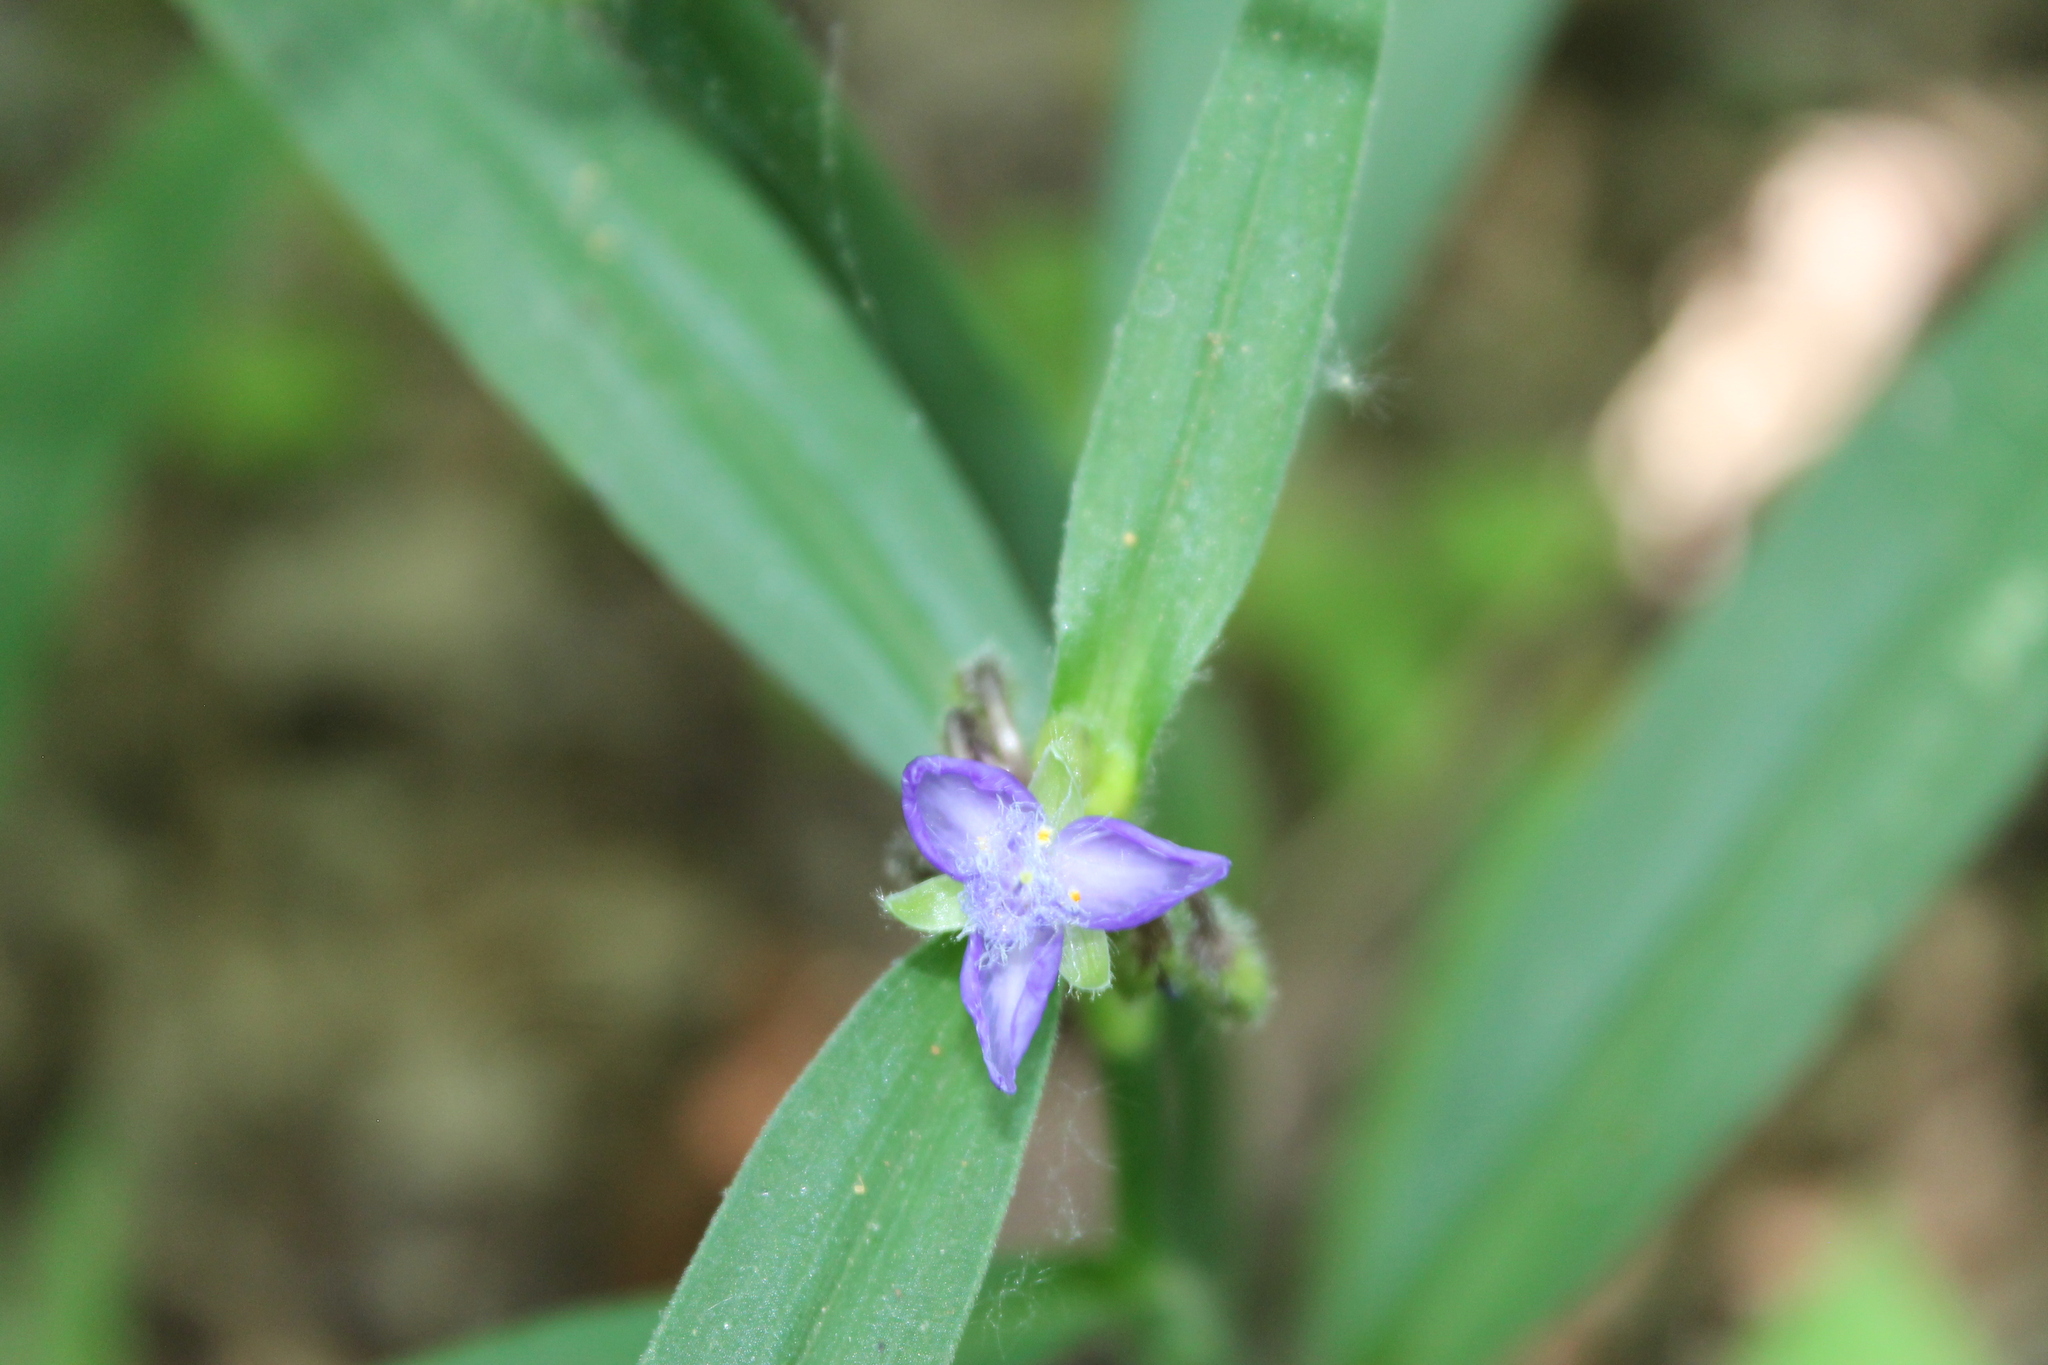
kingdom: Plantae
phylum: Tracheophyta
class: Liliopsida
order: Commelinales
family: Commelinaceae
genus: Tradescantia
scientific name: Tradescantia subaspera
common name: Wide-leaf spiderwort
